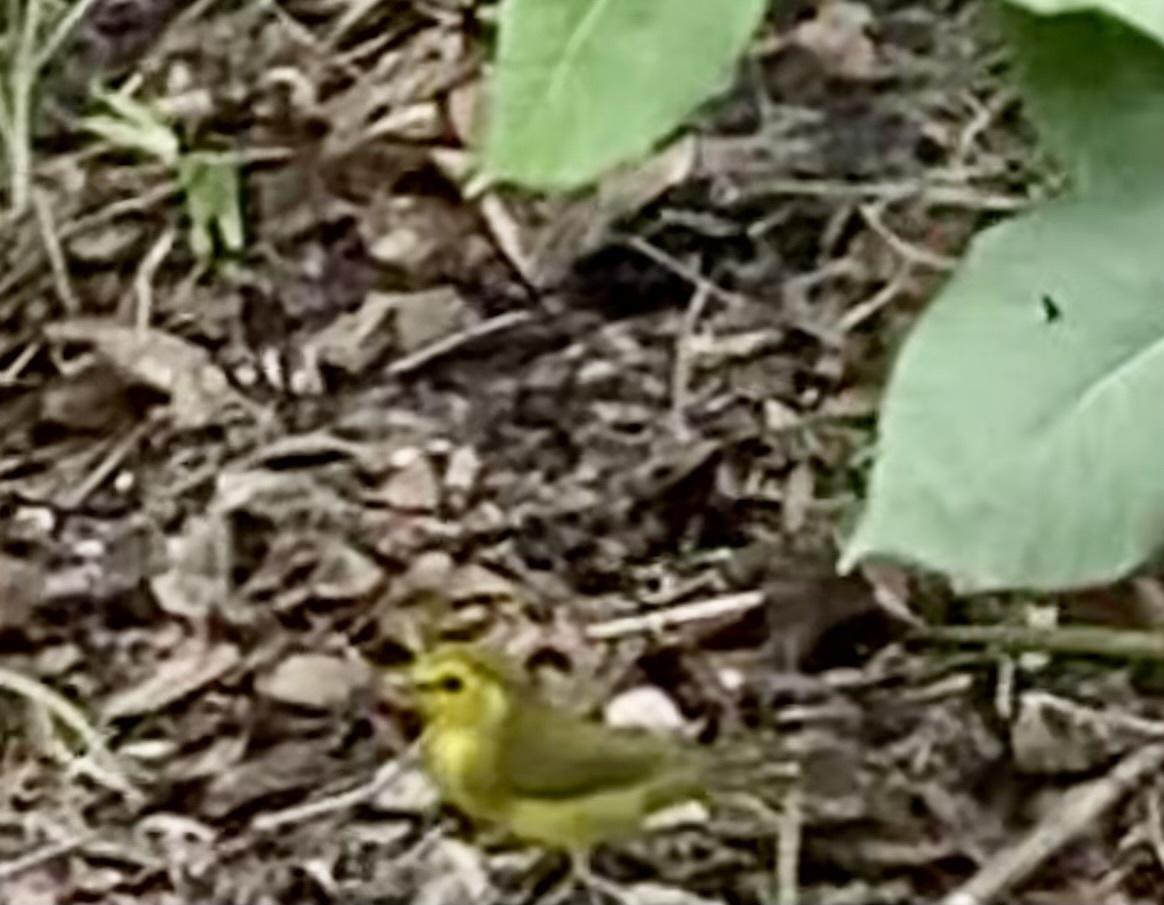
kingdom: Animalia
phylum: Chordata
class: Aves
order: Passeriformes
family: Parulidae
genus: Setophaga
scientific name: Setophaga citrina
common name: Hooded warbler
